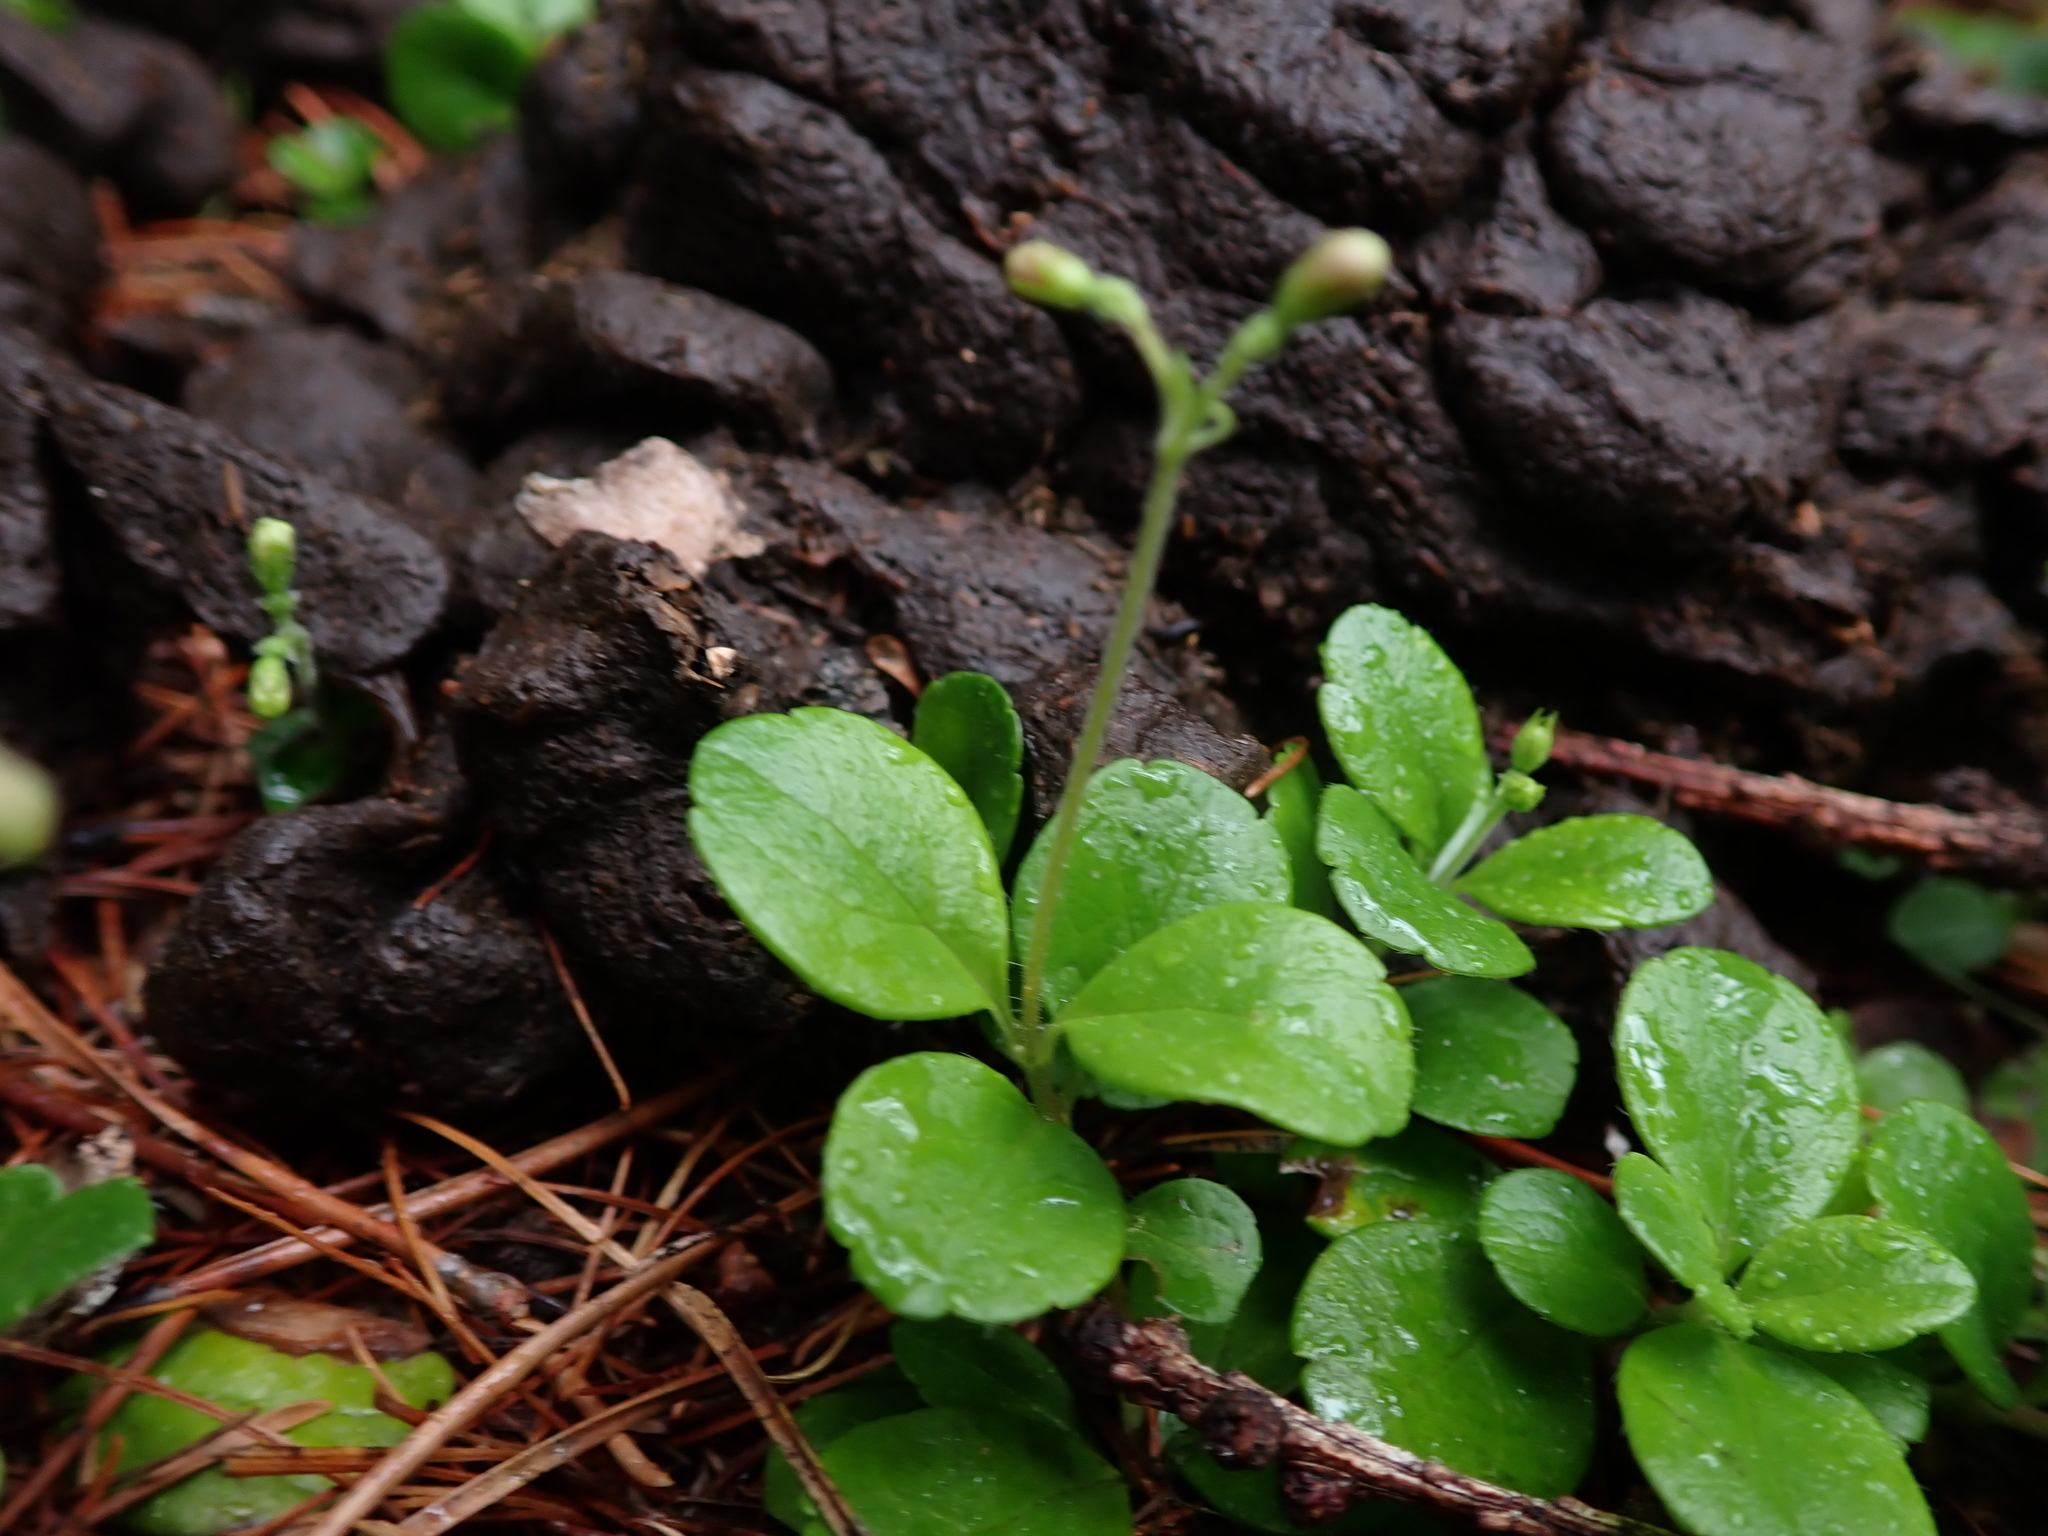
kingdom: Plantae
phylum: Tracheophyta
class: Magnoliopsida
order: Dipsacales
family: Caprifoliaceae
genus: Linnaea
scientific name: Linnaea borealis
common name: Twinflower
